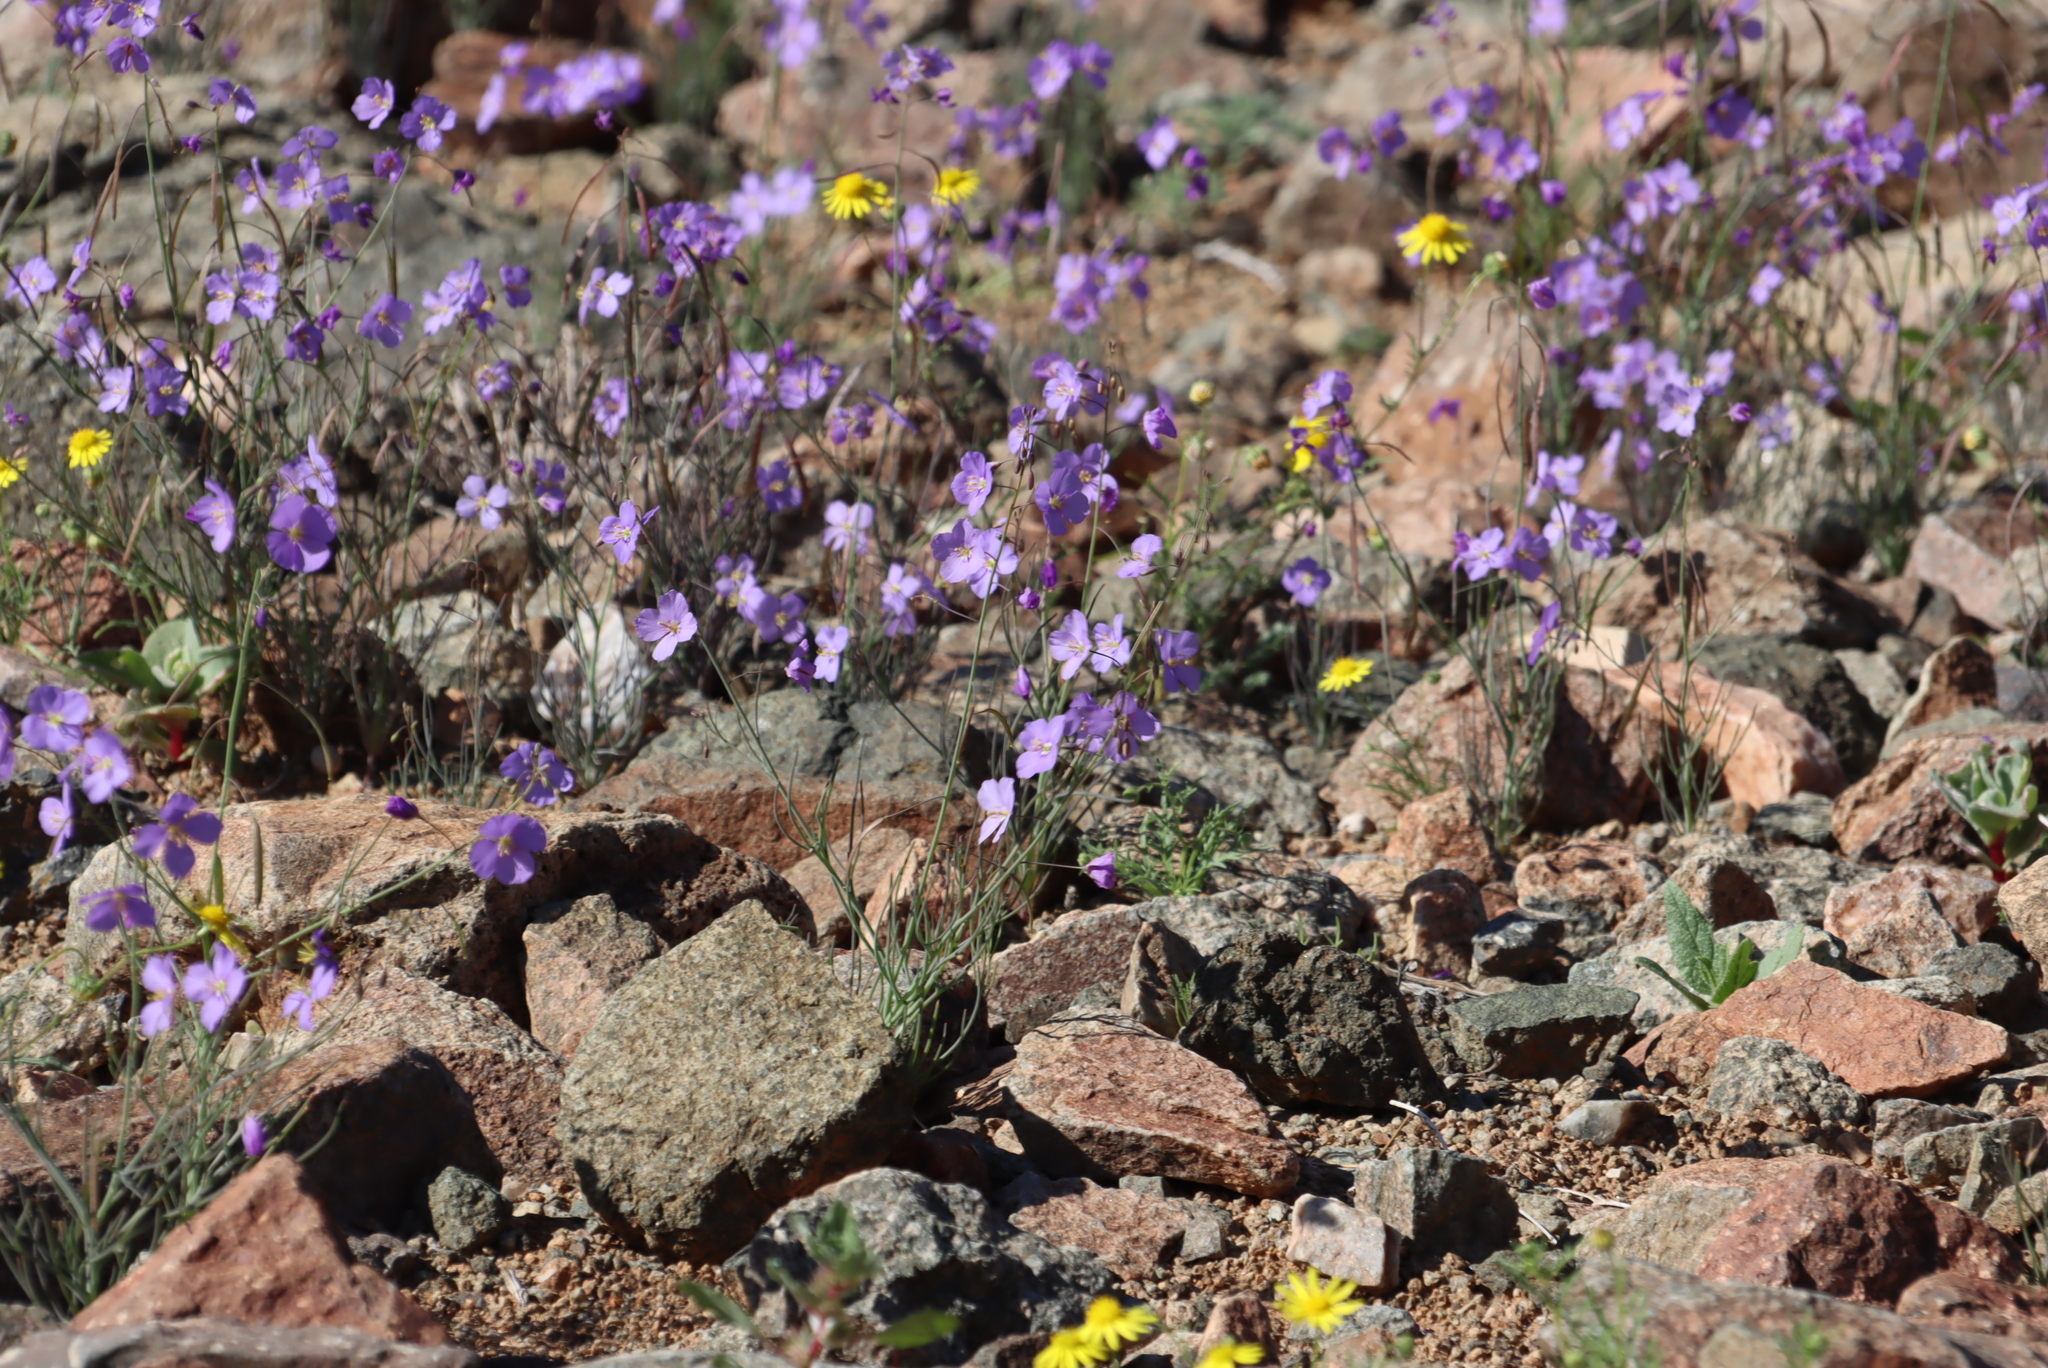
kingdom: Plantae
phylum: Tracheophyta
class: Magnoliopsida
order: Brassicales
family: Brassicaceae
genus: Heliophila
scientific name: Heliophila trifurca
